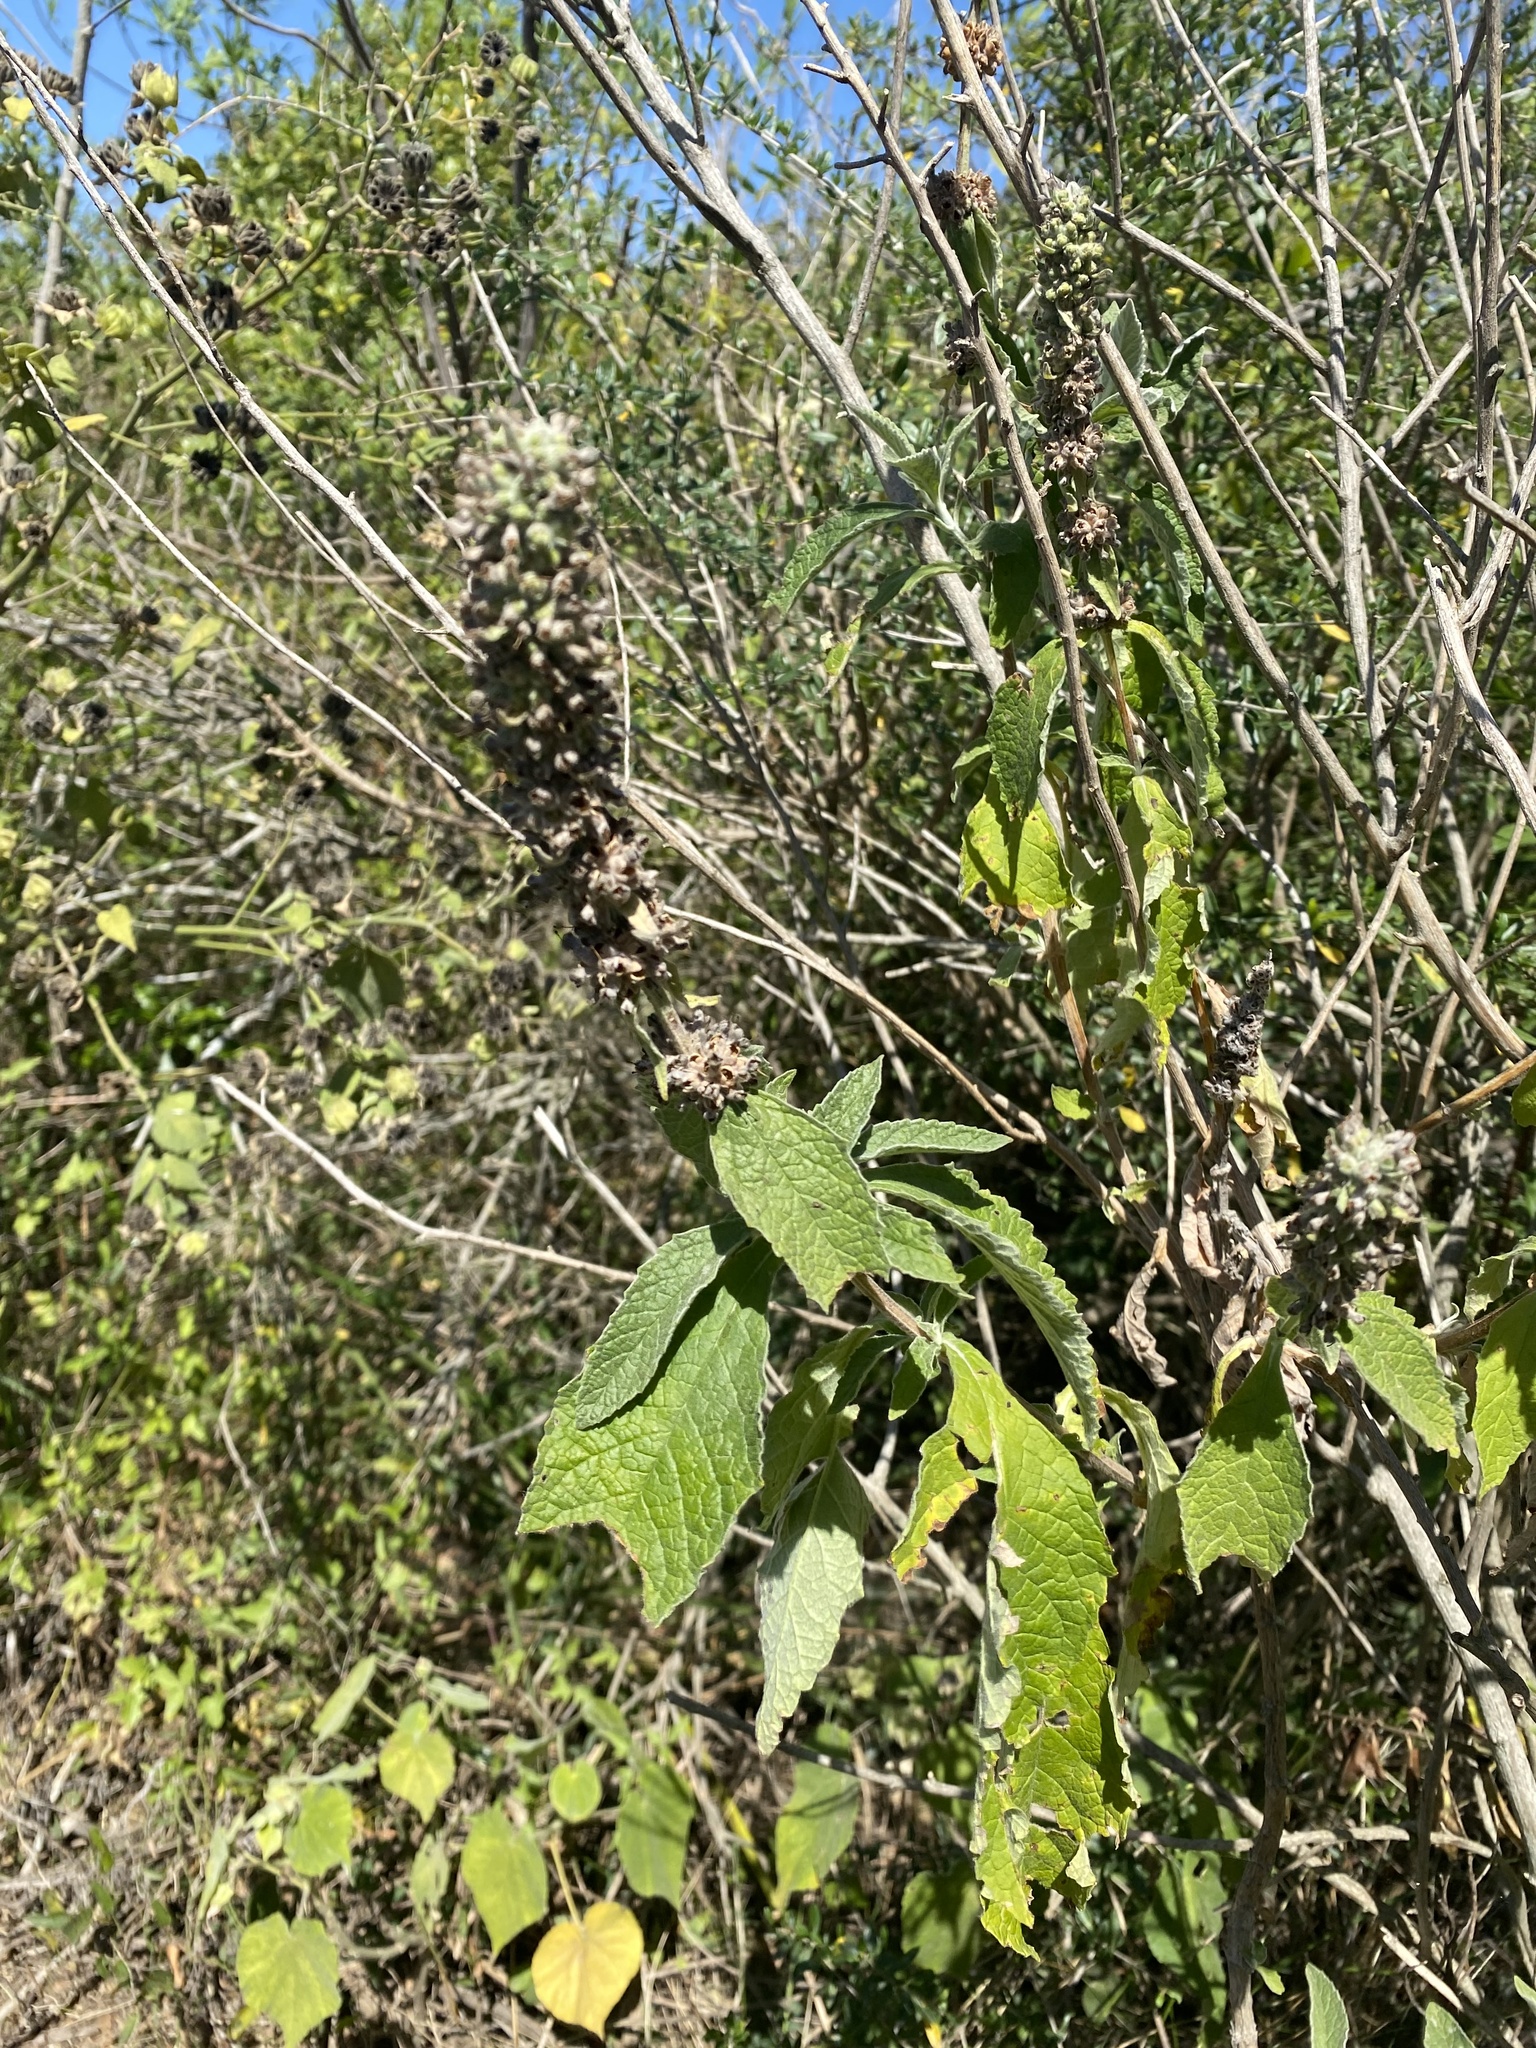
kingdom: Plantae
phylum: Tracheophyta
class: Magnoliopsida
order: Lamiales
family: Scrophulariaceae
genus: Buddleja
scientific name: Buddleja stachyoides
